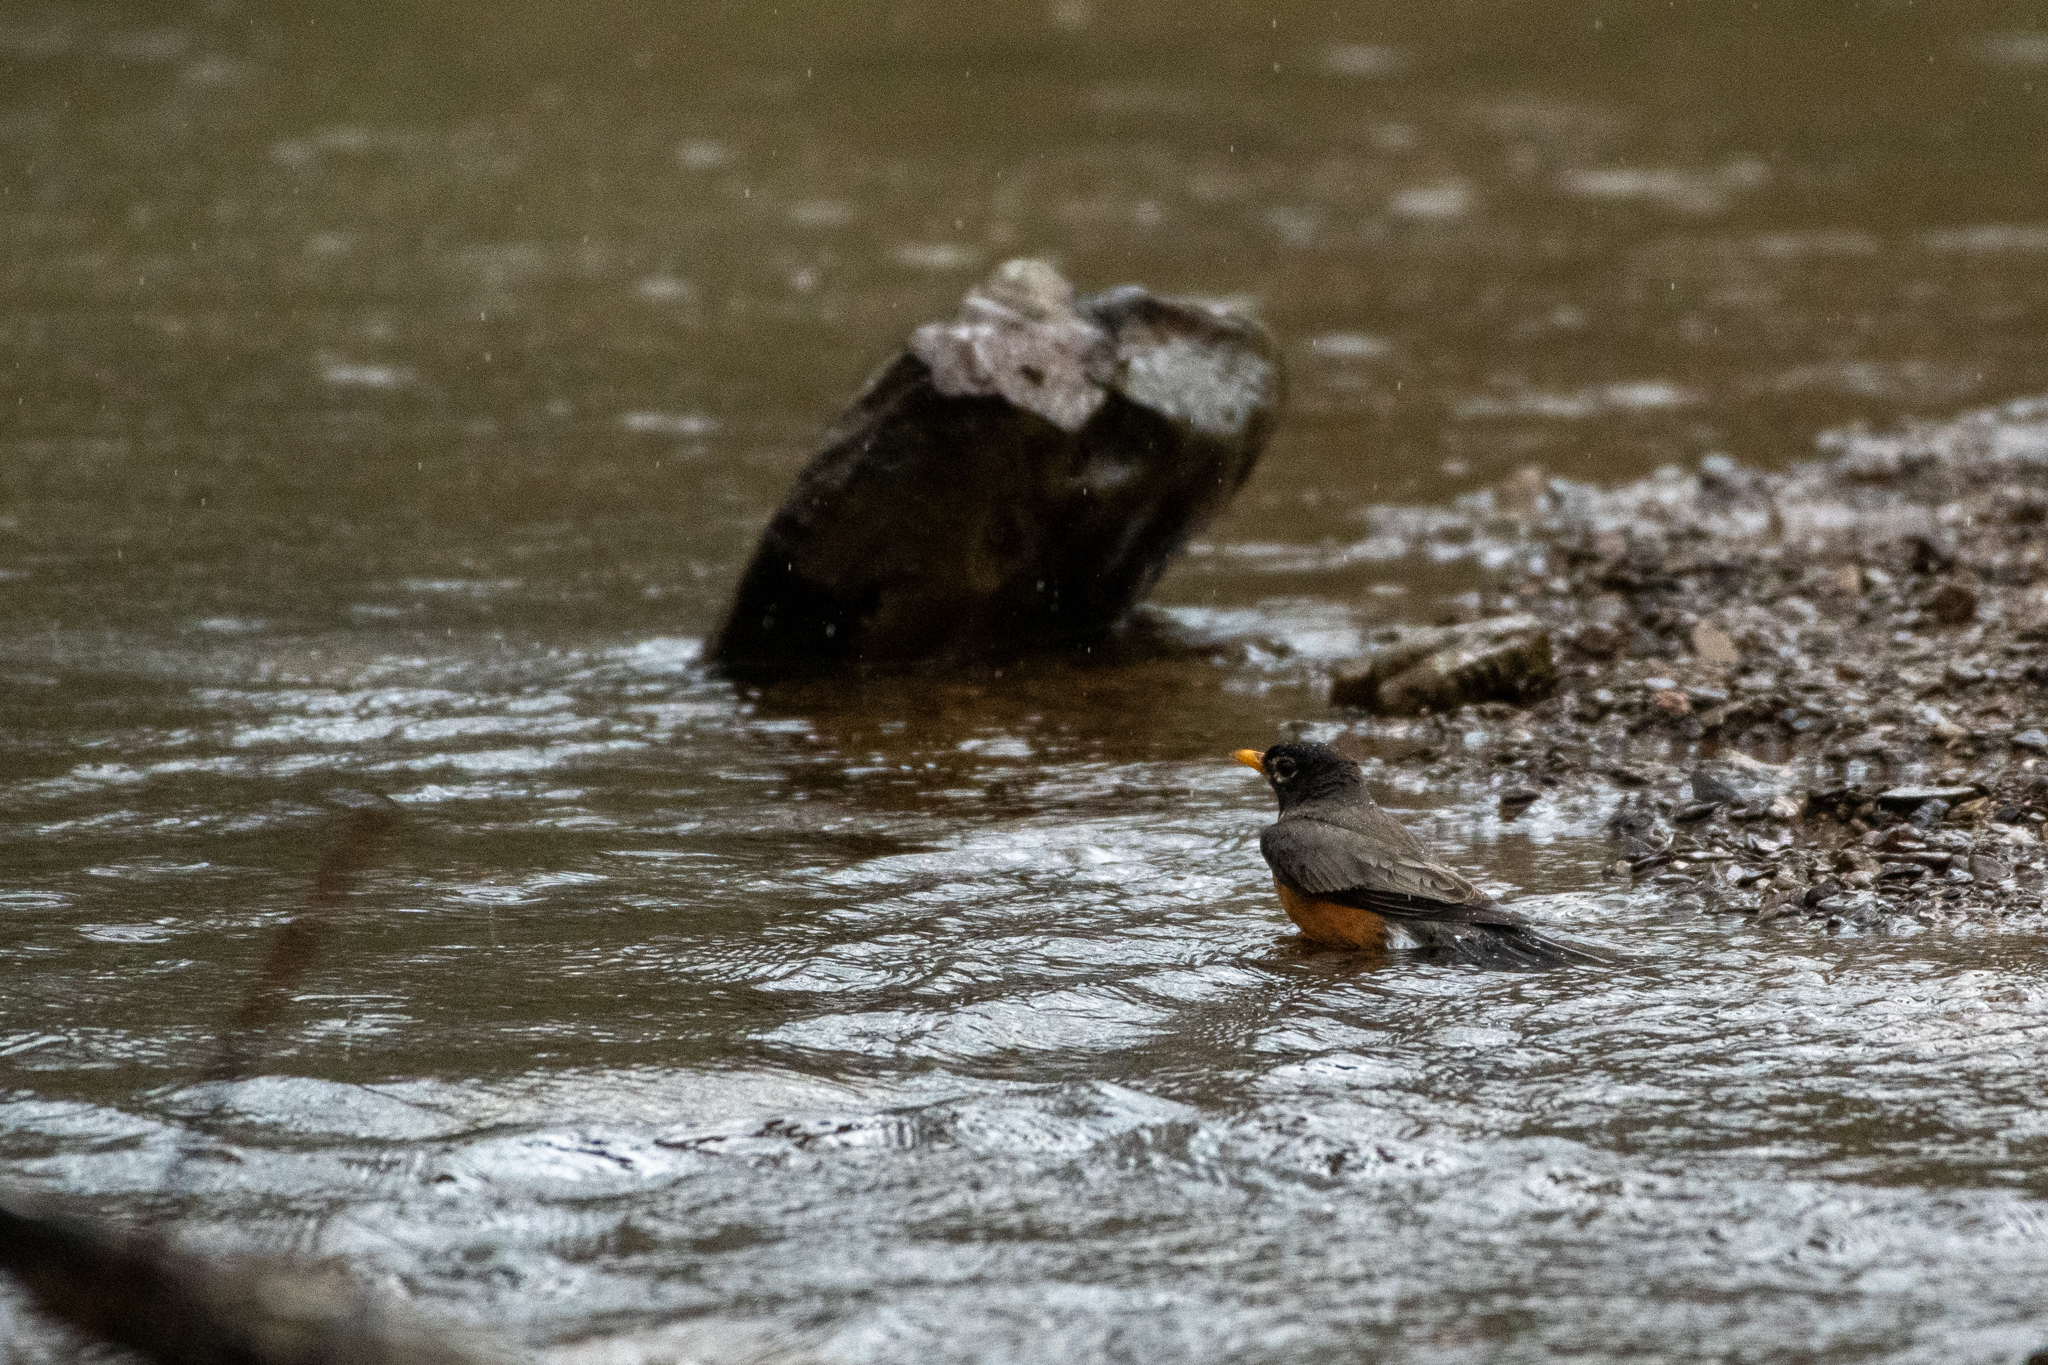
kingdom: Animalia
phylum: Chordata
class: Aves
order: Passeriformes
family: Turdidae
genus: Turdus
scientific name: Turdus migratorius
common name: American robin
